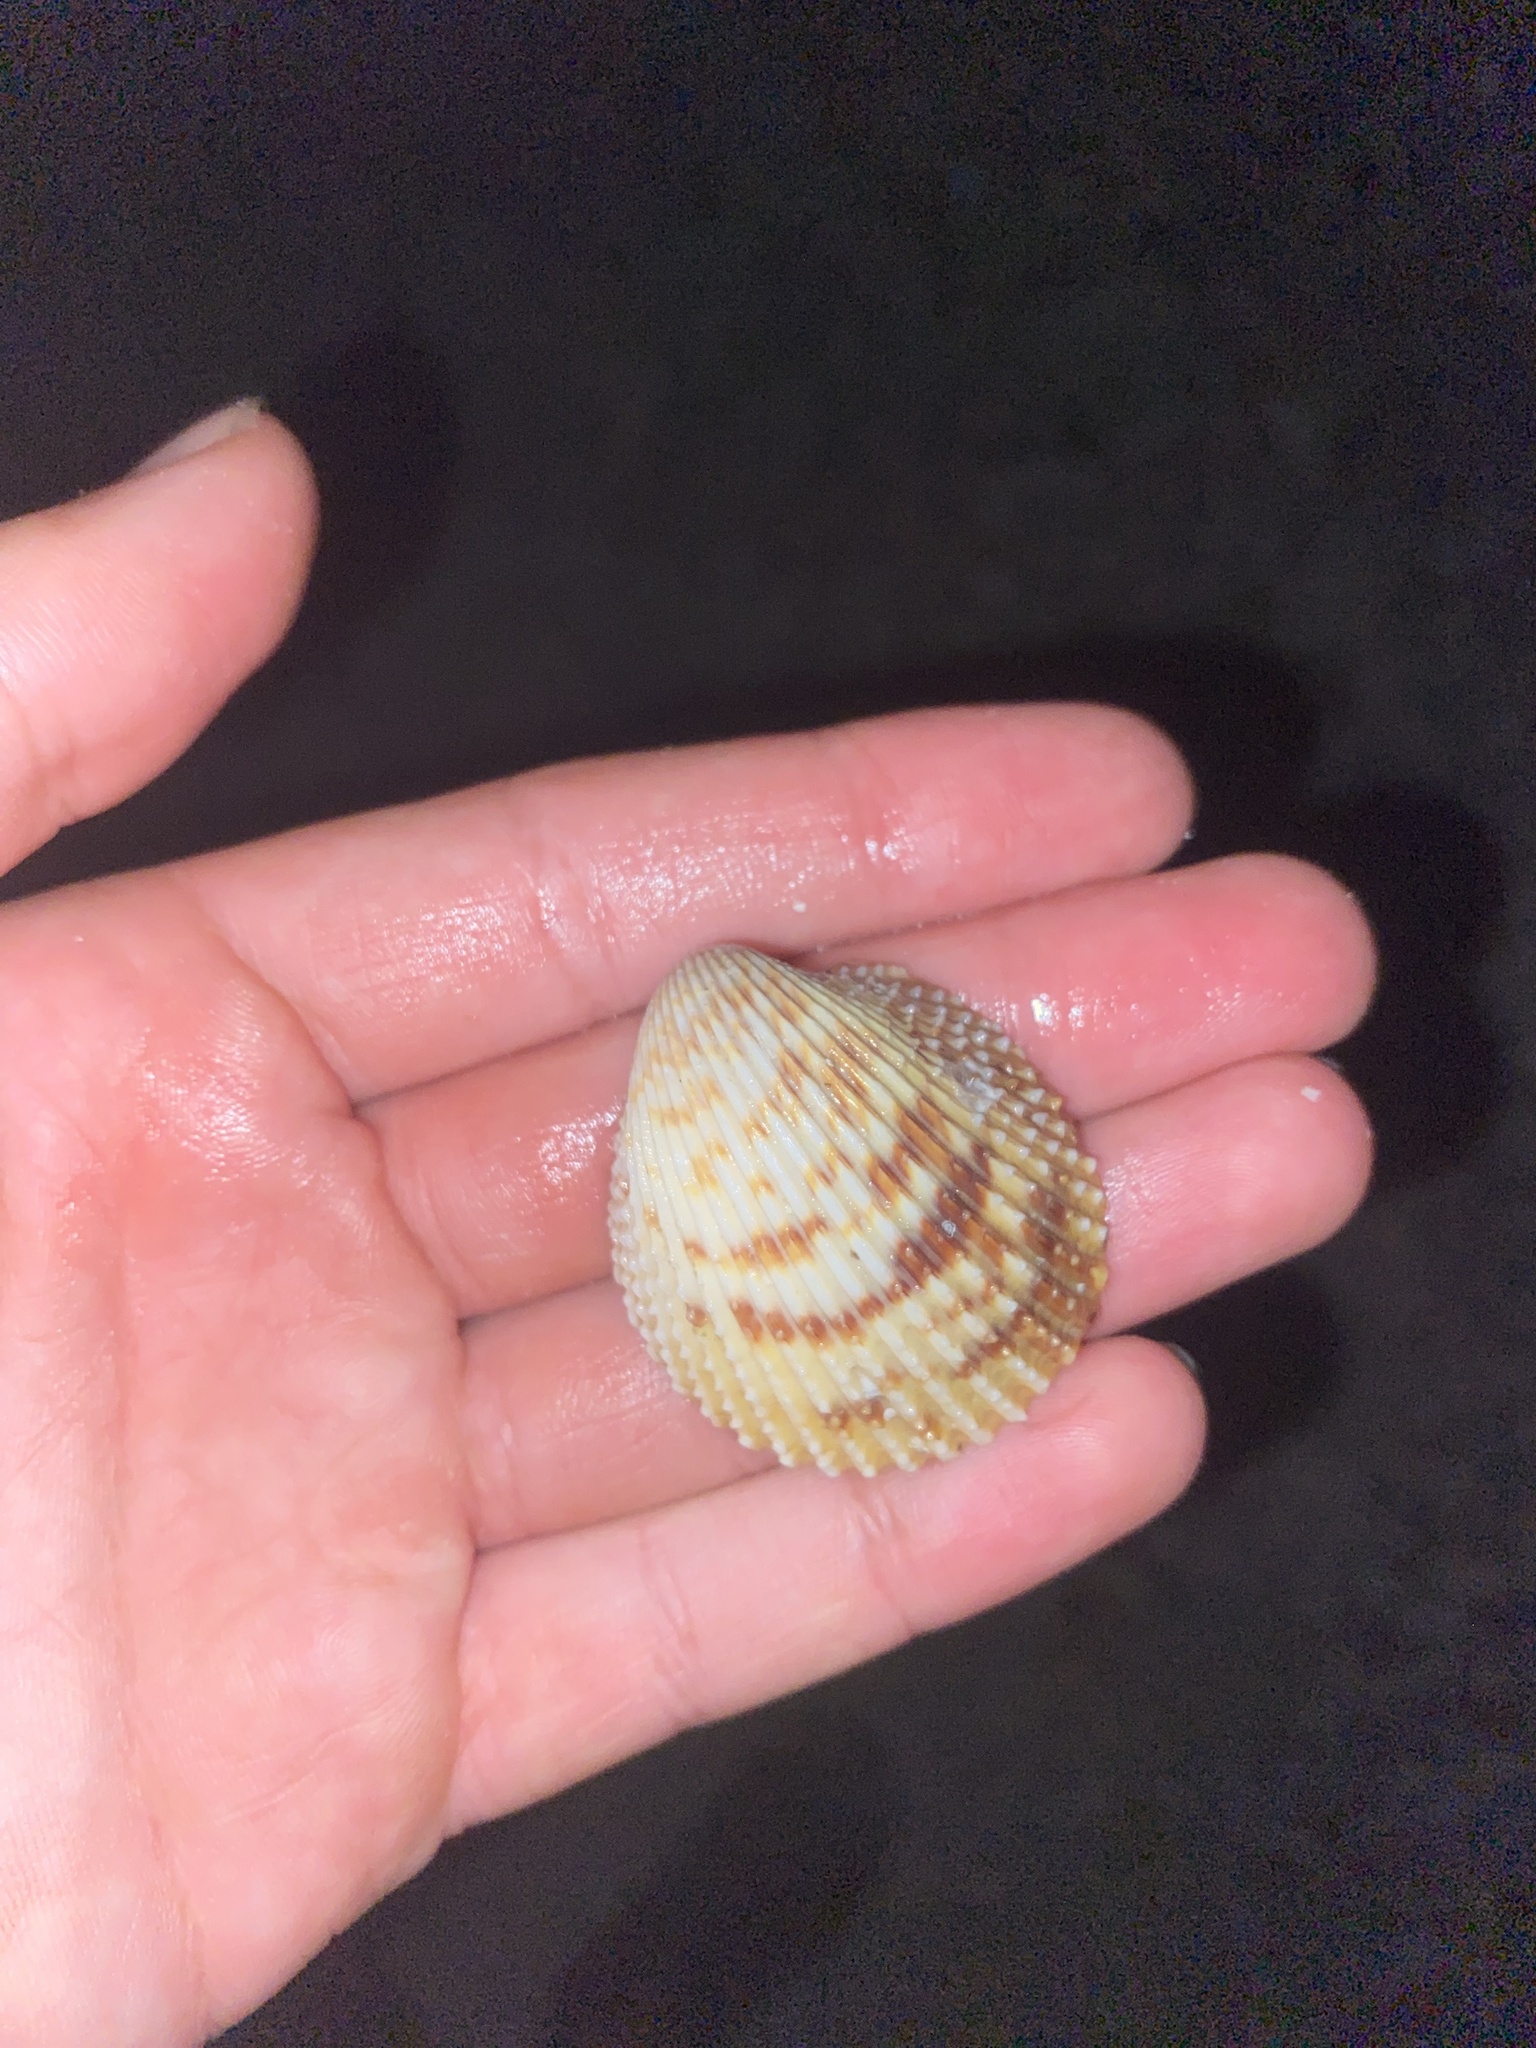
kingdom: Animalia
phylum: Mollusca
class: Bivalvia
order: Cardiida
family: Cardiidae
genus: Trachycardium
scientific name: Trachycardium egmontianum
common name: Florida pricklycockle
